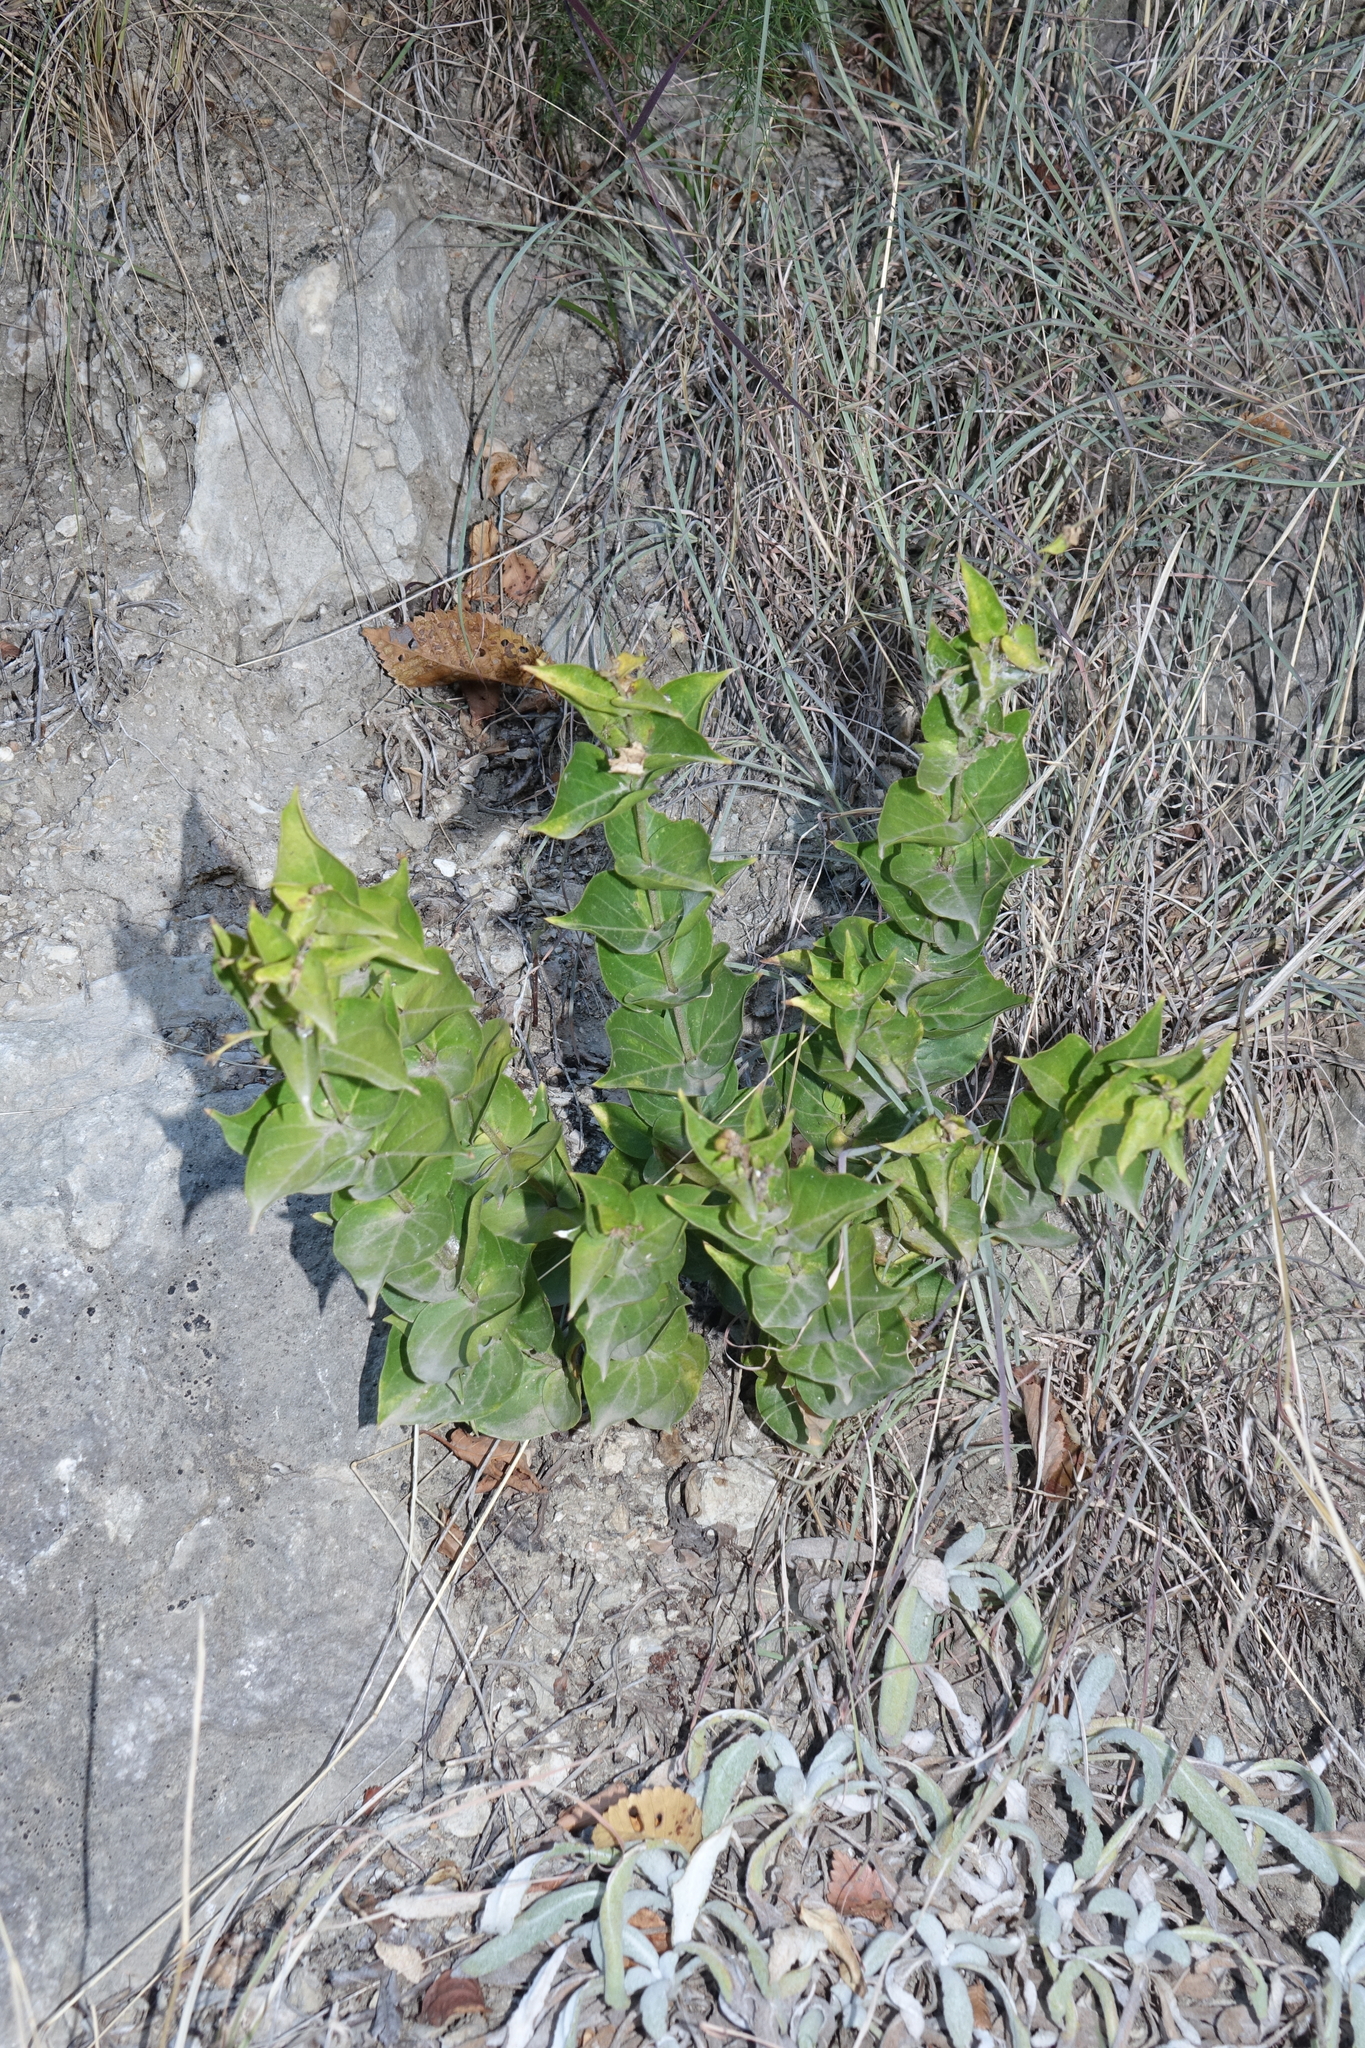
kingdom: Plantae
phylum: Tracheophyta
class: Magnoliopsida
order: Gentianales
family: Apocynaceae
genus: Vincetoxicum
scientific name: Vincetoxicum funebre
